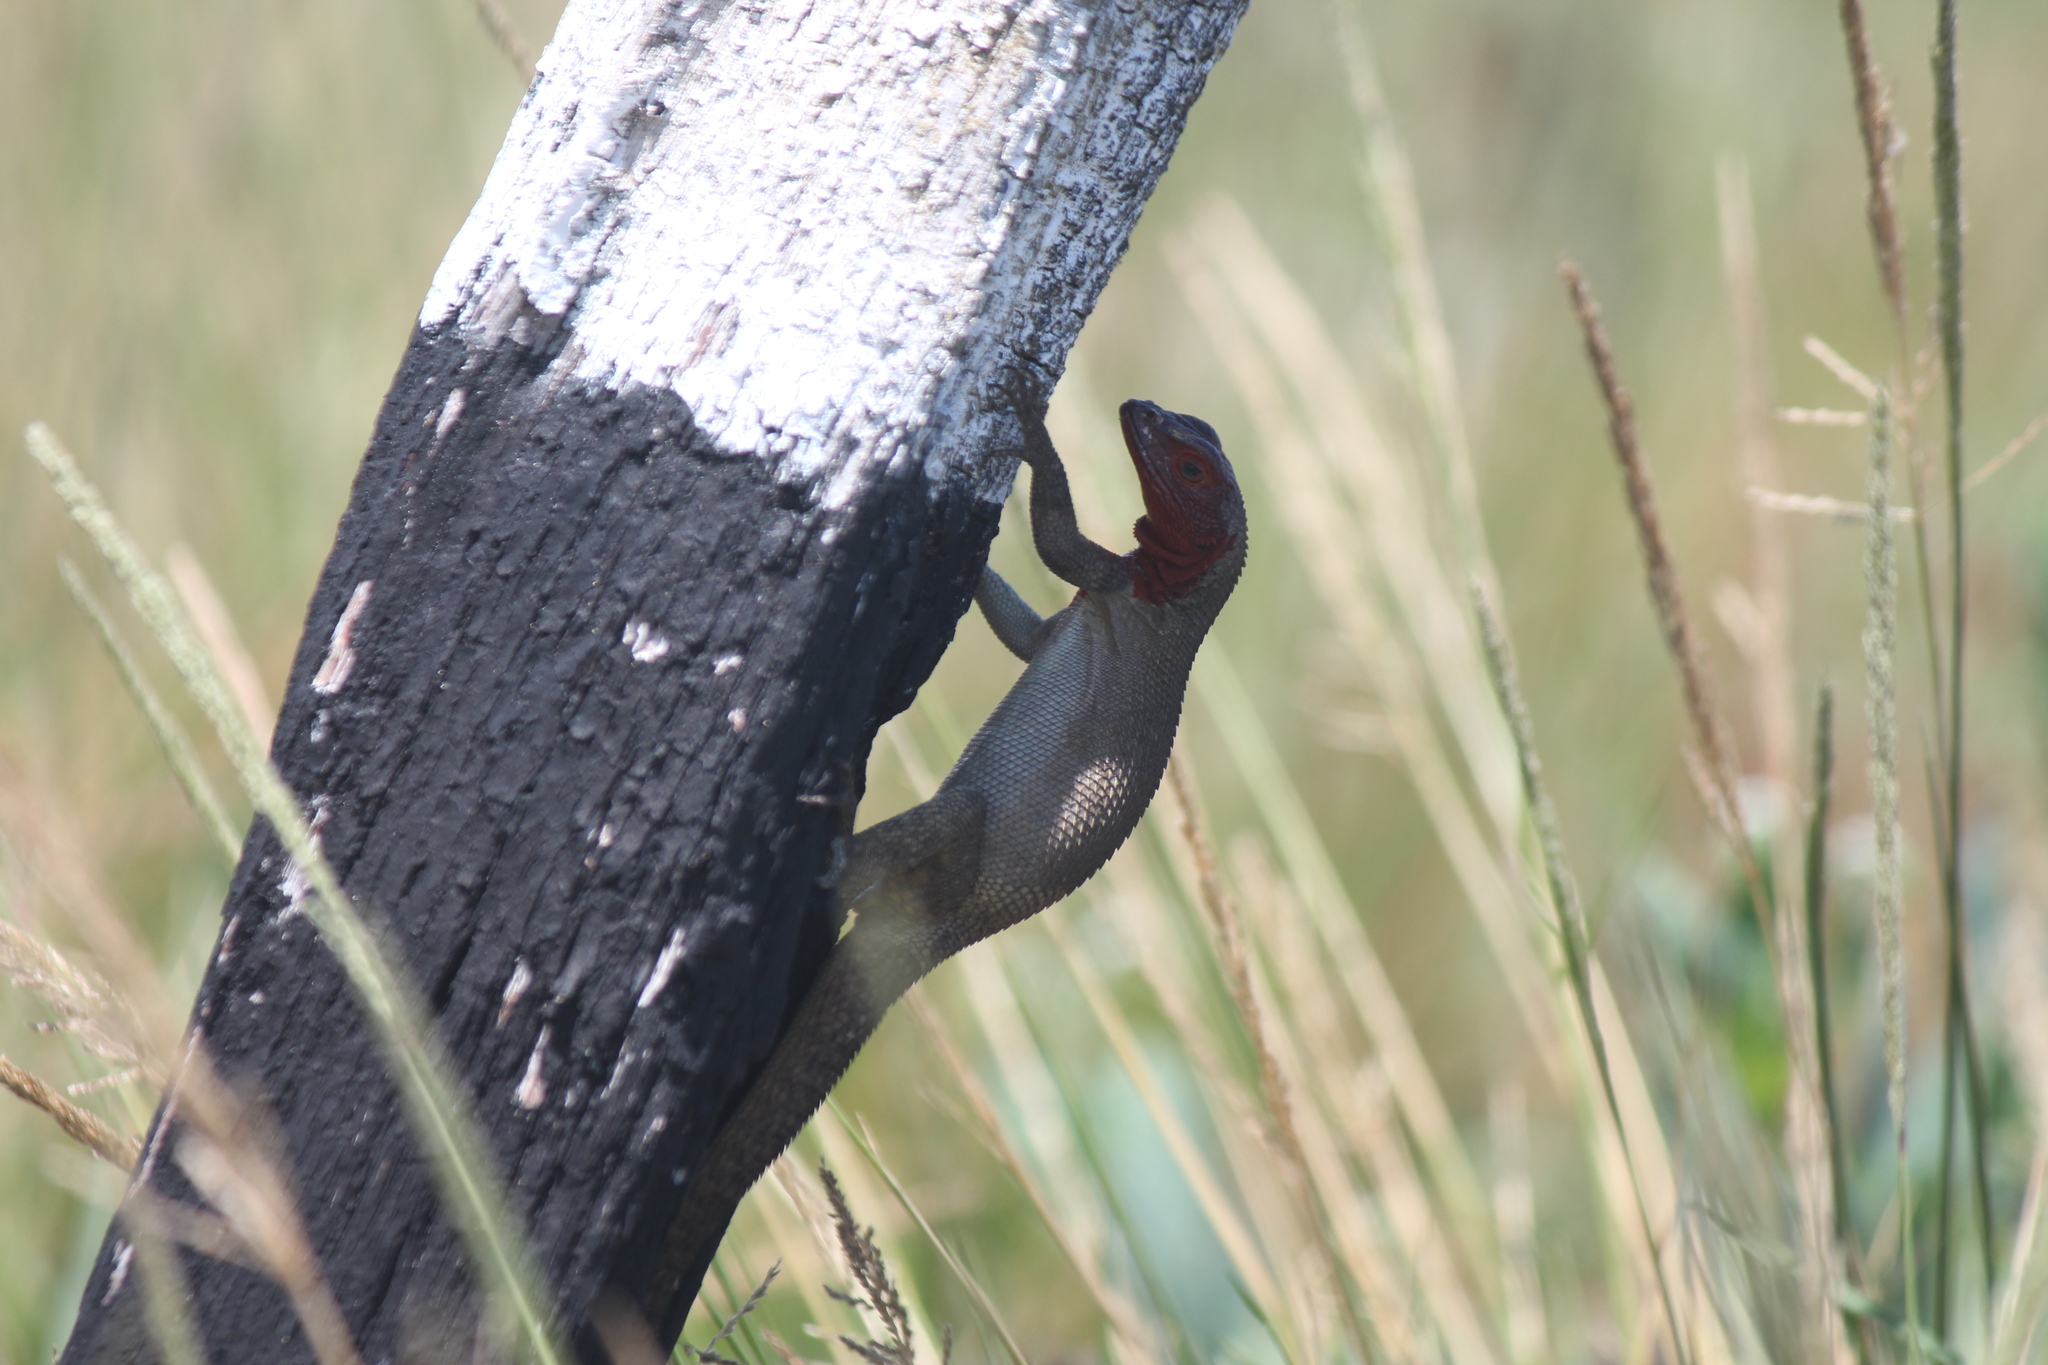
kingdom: Animalia
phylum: Chordata
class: Squamata
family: Tropiduridae
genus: Microlophus
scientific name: Microlophus delanonis
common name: Hood lava lizard
